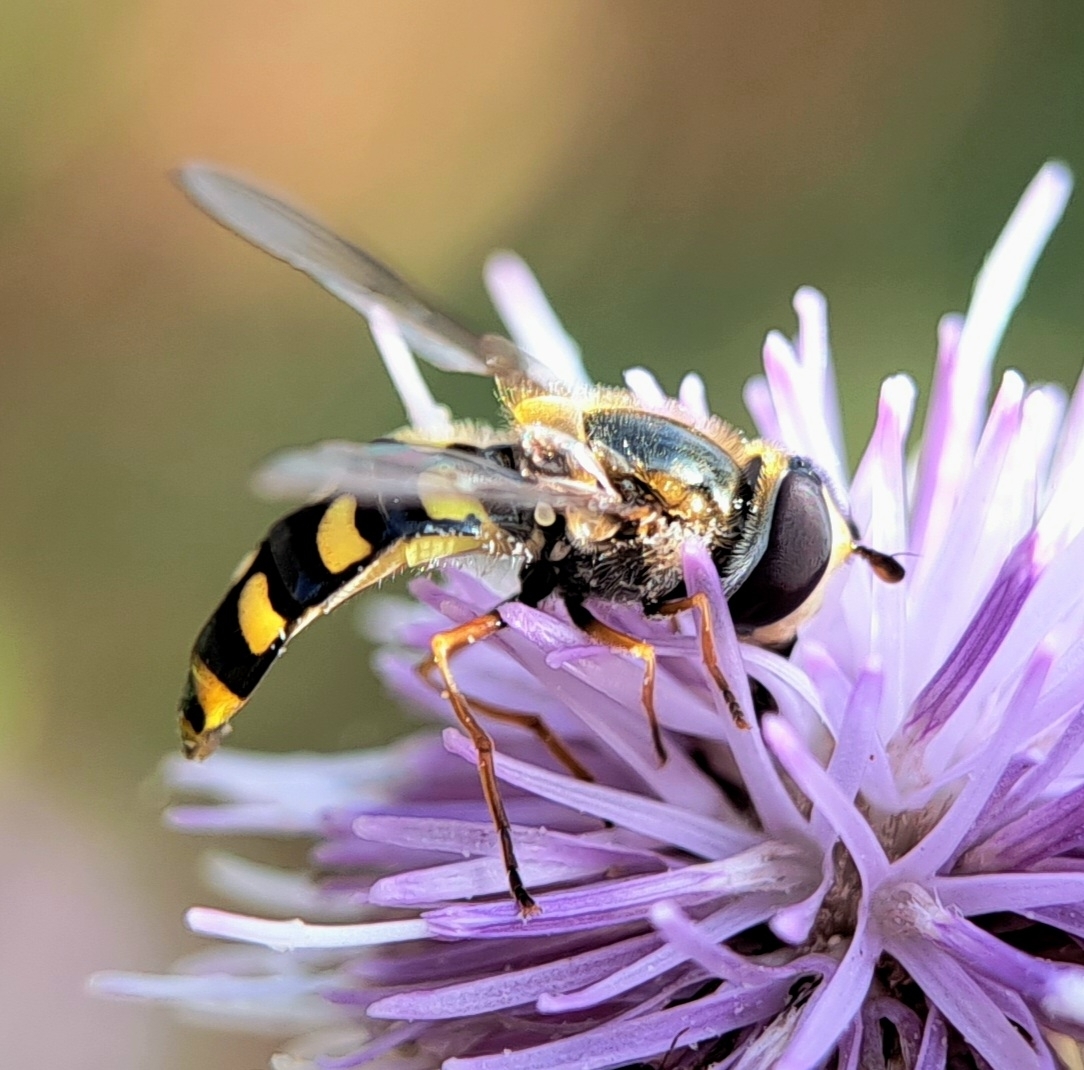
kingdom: Animalia
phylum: Arthropoda
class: Insecta
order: Diptera
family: Syrphidae
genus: Eupeodes
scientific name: Eupeodes luniger
